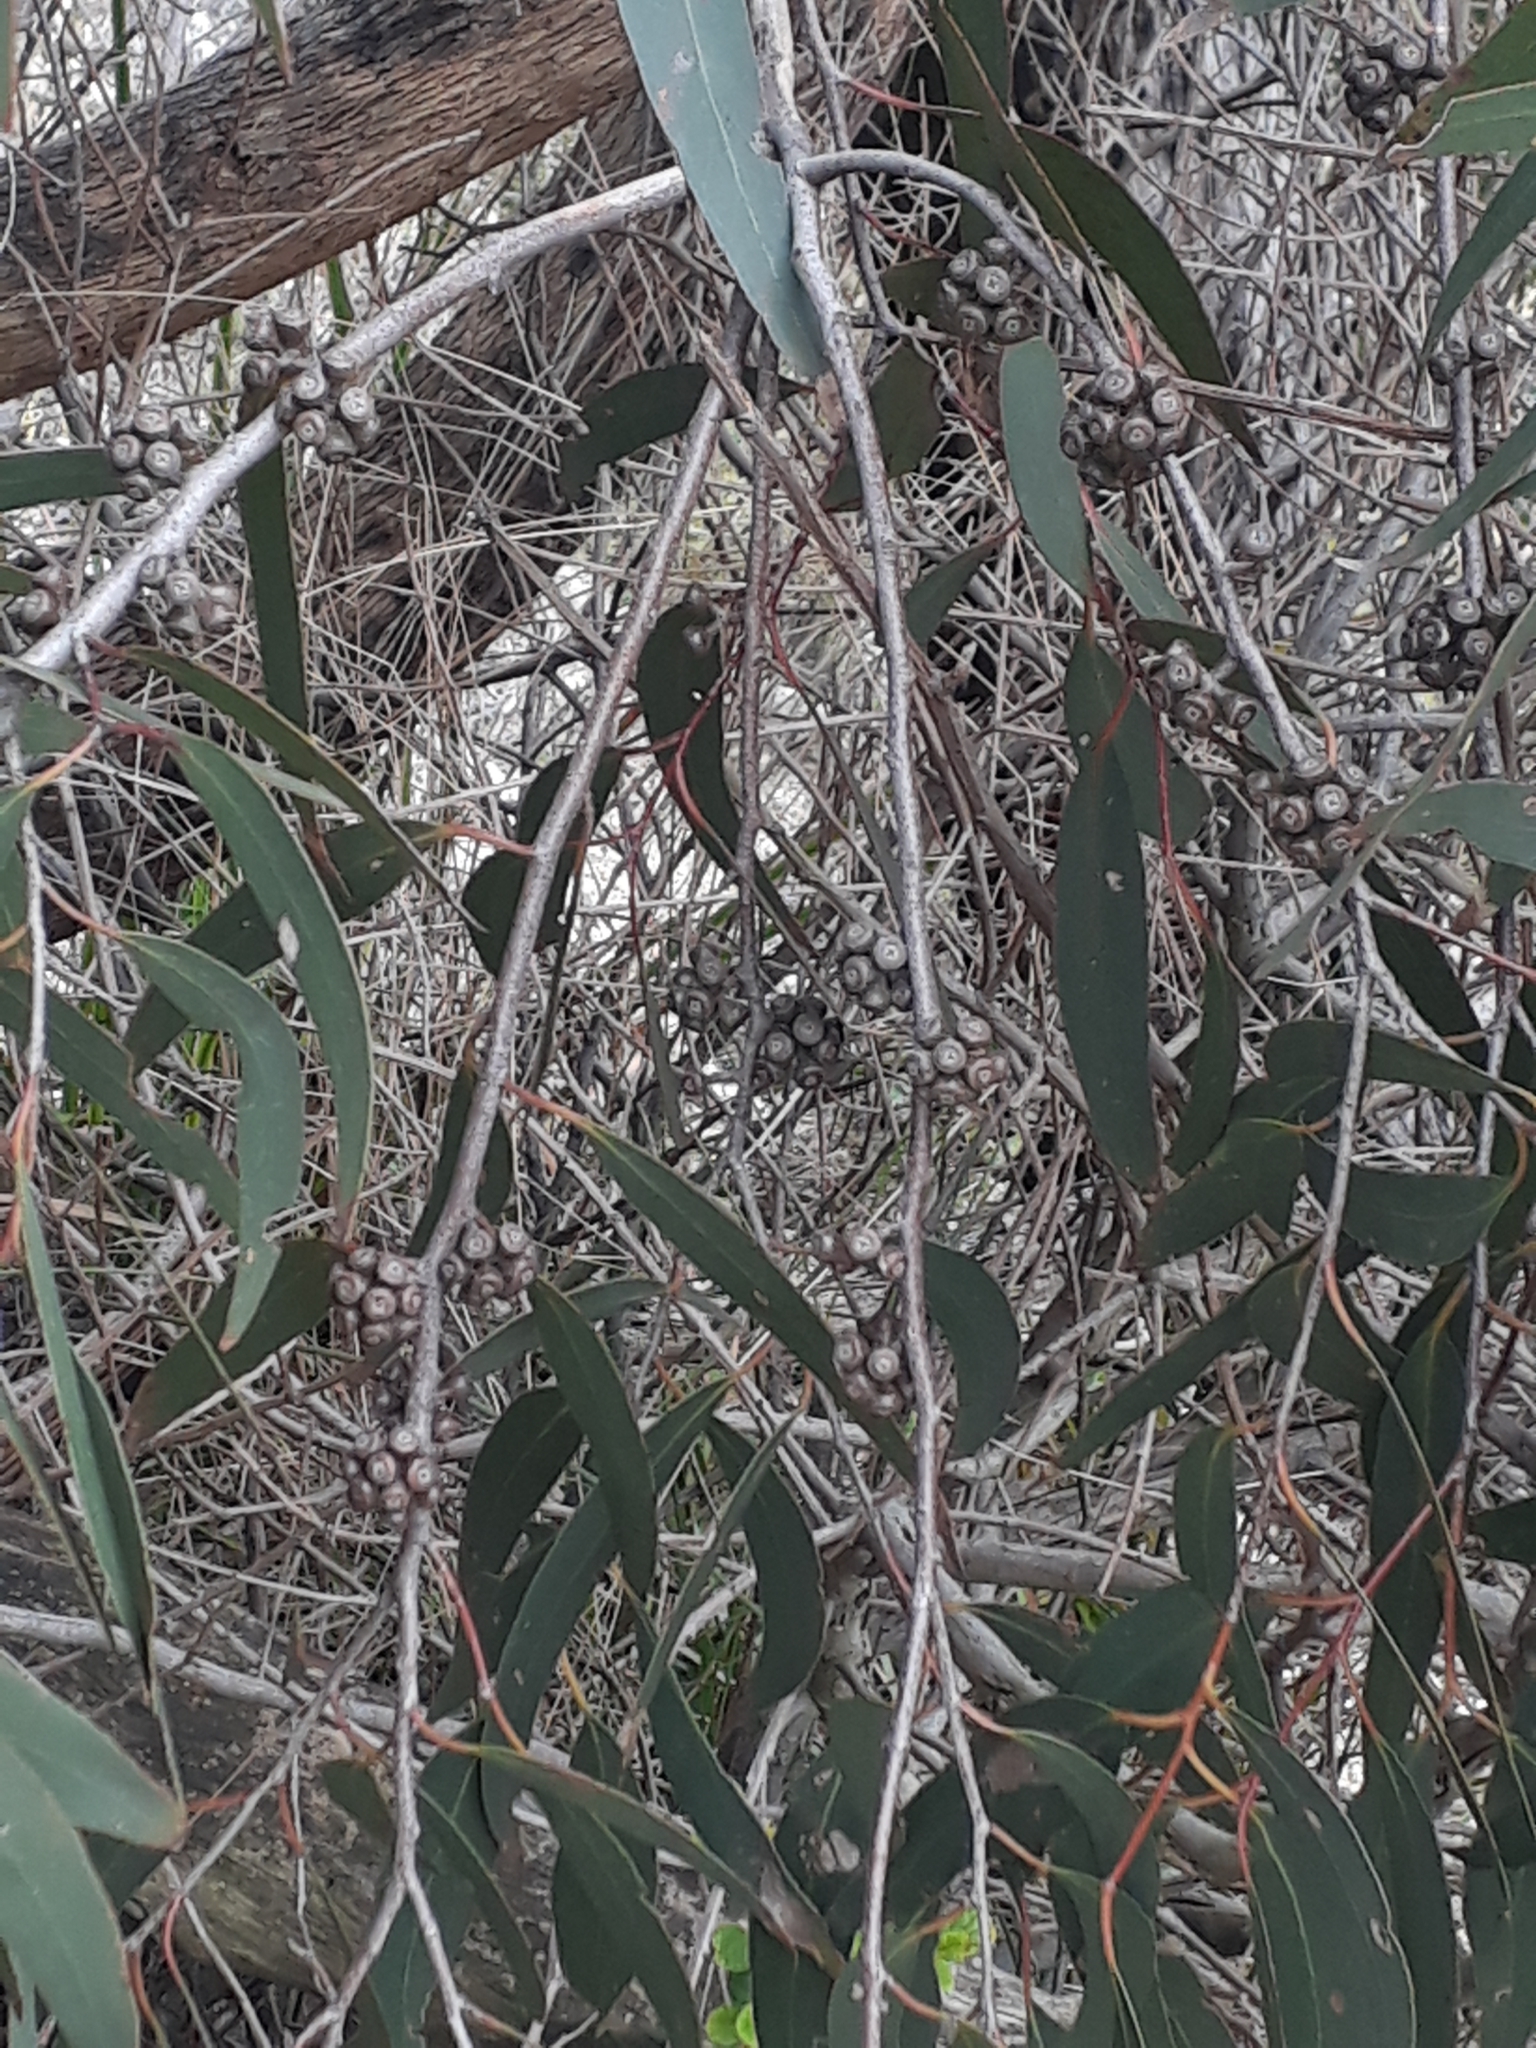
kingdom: Plantae
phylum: Tracheophyta
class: Magnoliopsida
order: Myrtales
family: Myrtaceae
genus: Eucalyptus
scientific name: Eucalyptus willisii
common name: South gippsland peppermint
